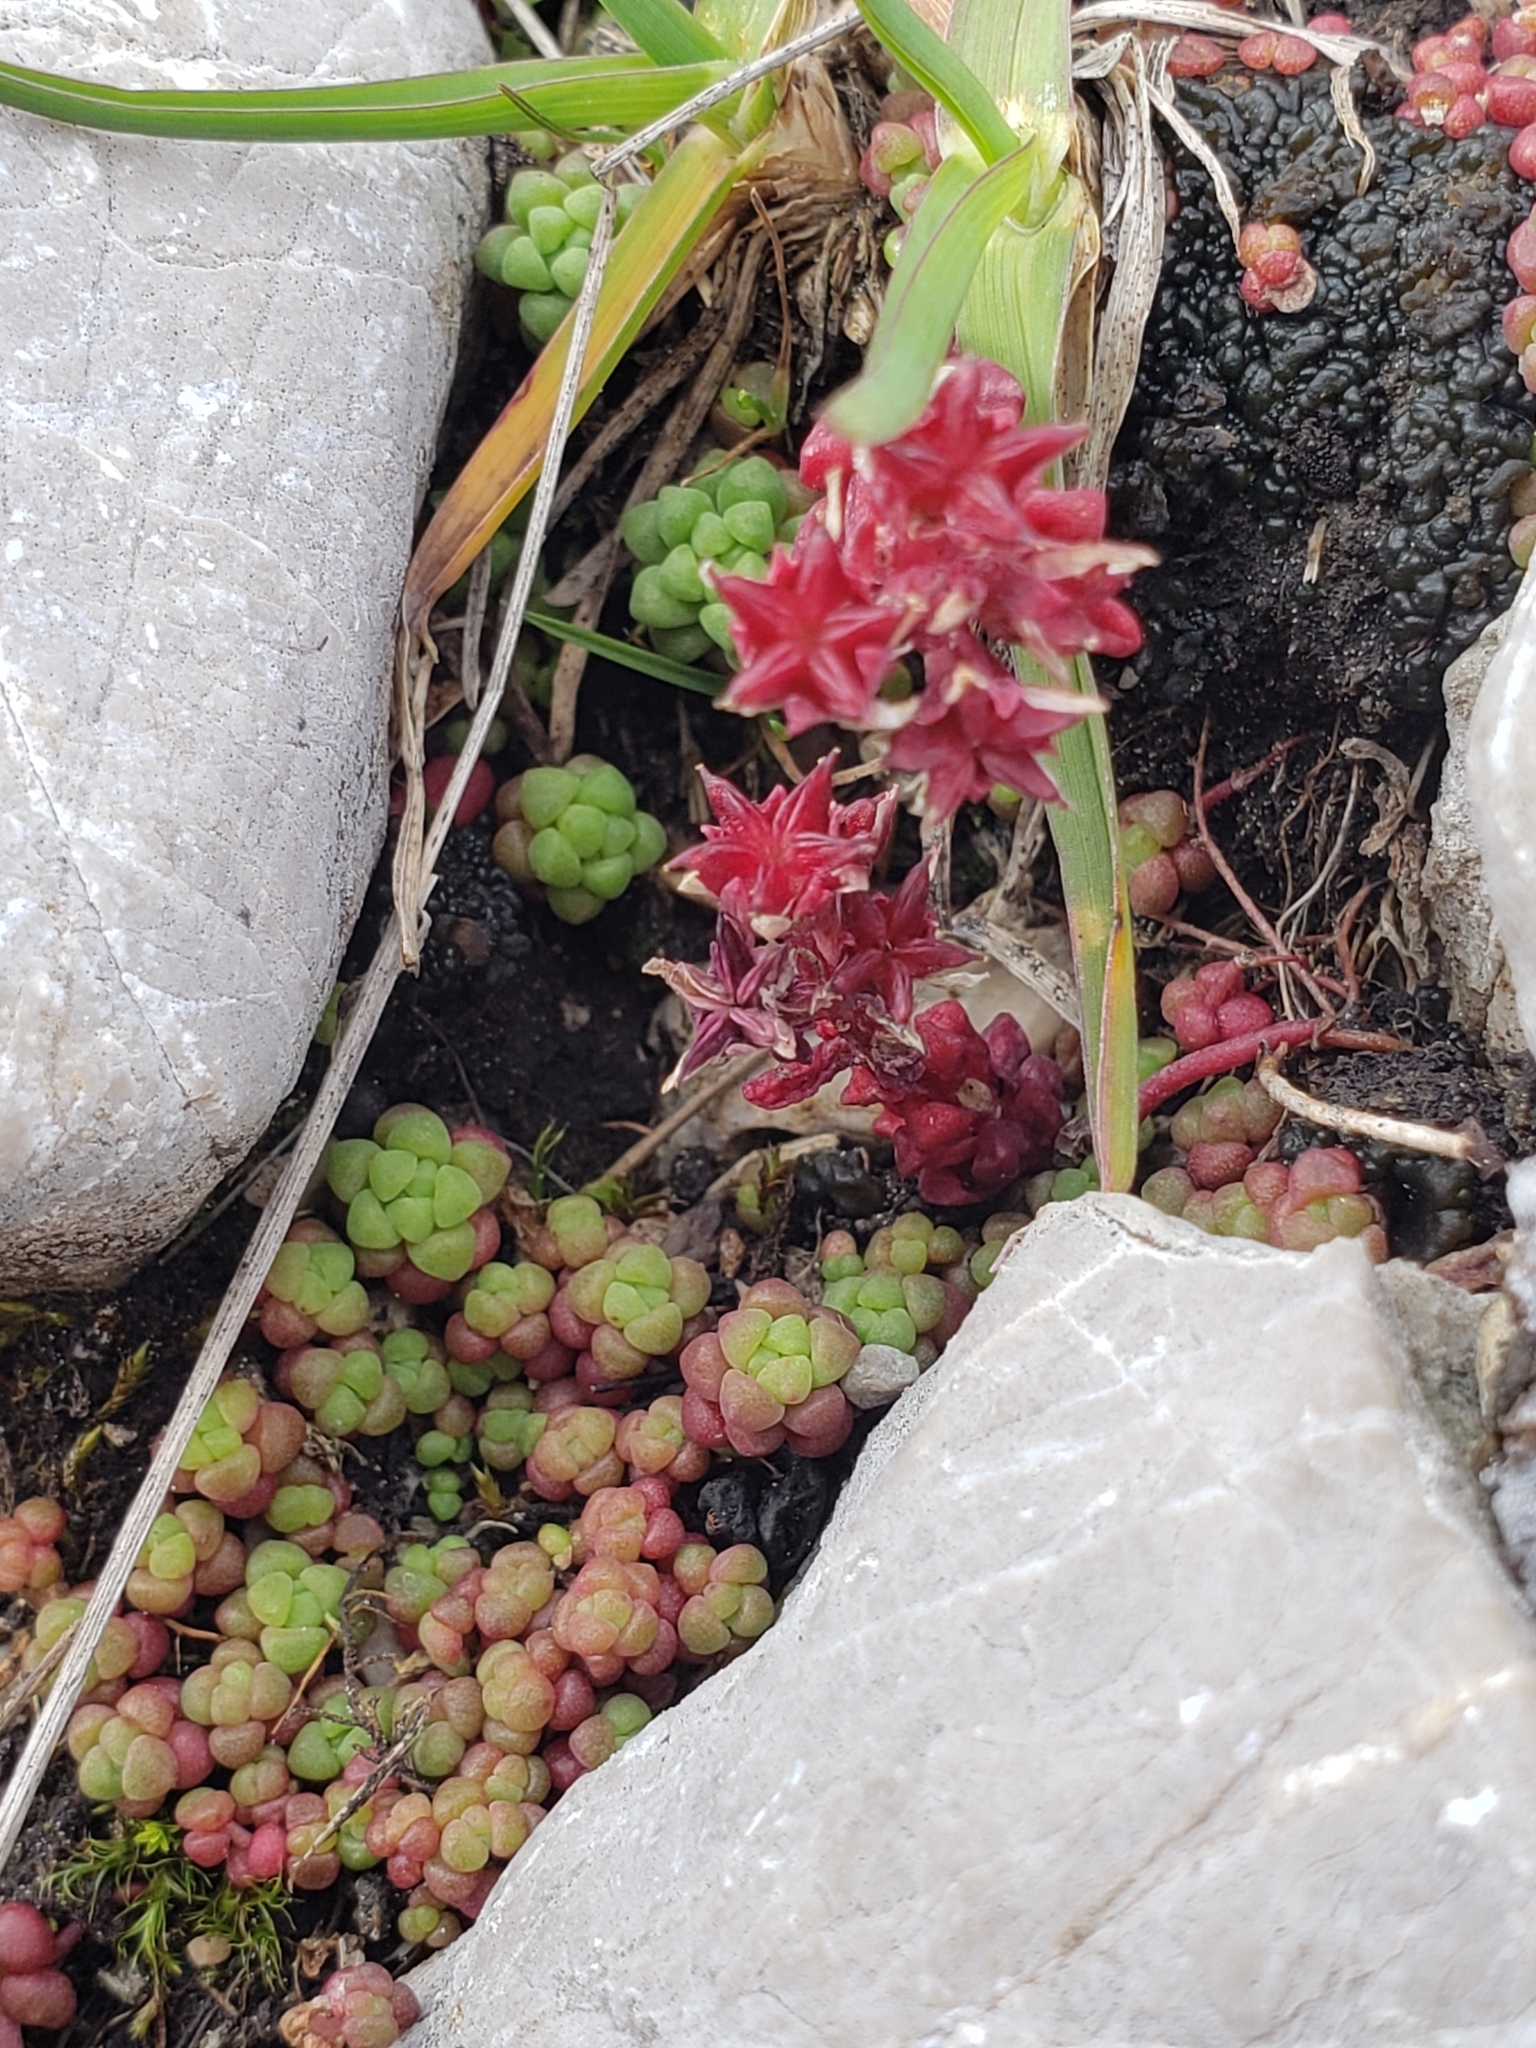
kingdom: Plantae
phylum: Tracheophyta
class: Magnoliopsida
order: Saxifragales
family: Crassulaceae
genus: Sedum
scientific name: Sedum atratum
